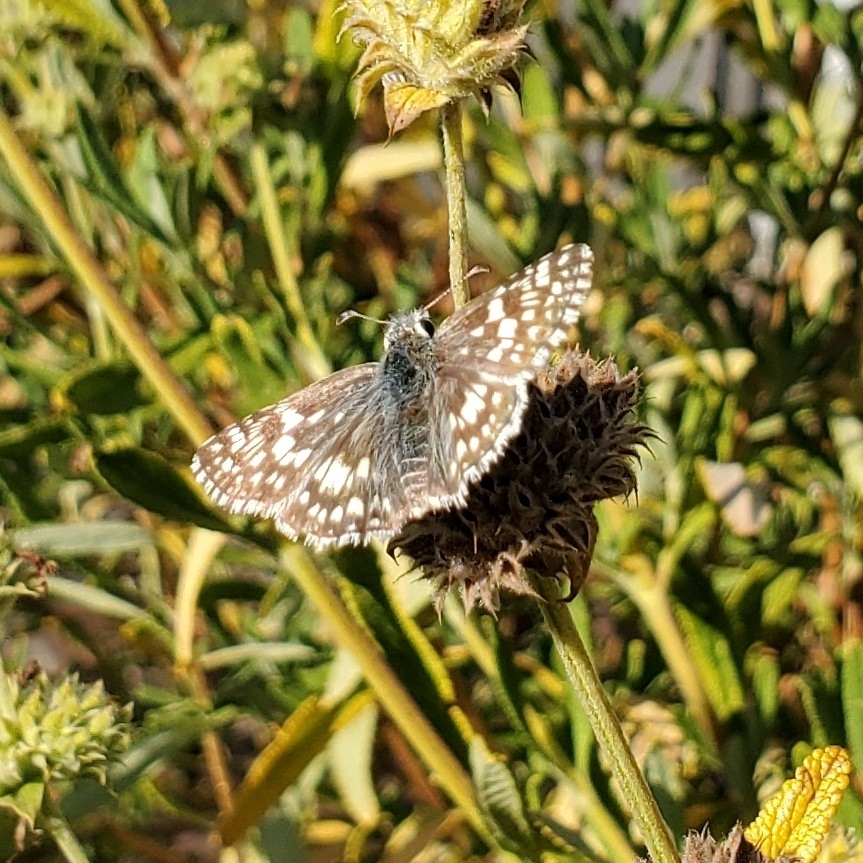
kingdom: Animalia
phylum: Arthropoda
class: Insecta
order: Lepidoptera
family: Hesperiidae
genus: Burnsius
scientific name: Burnsius communis
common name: Common checkered-skipper
